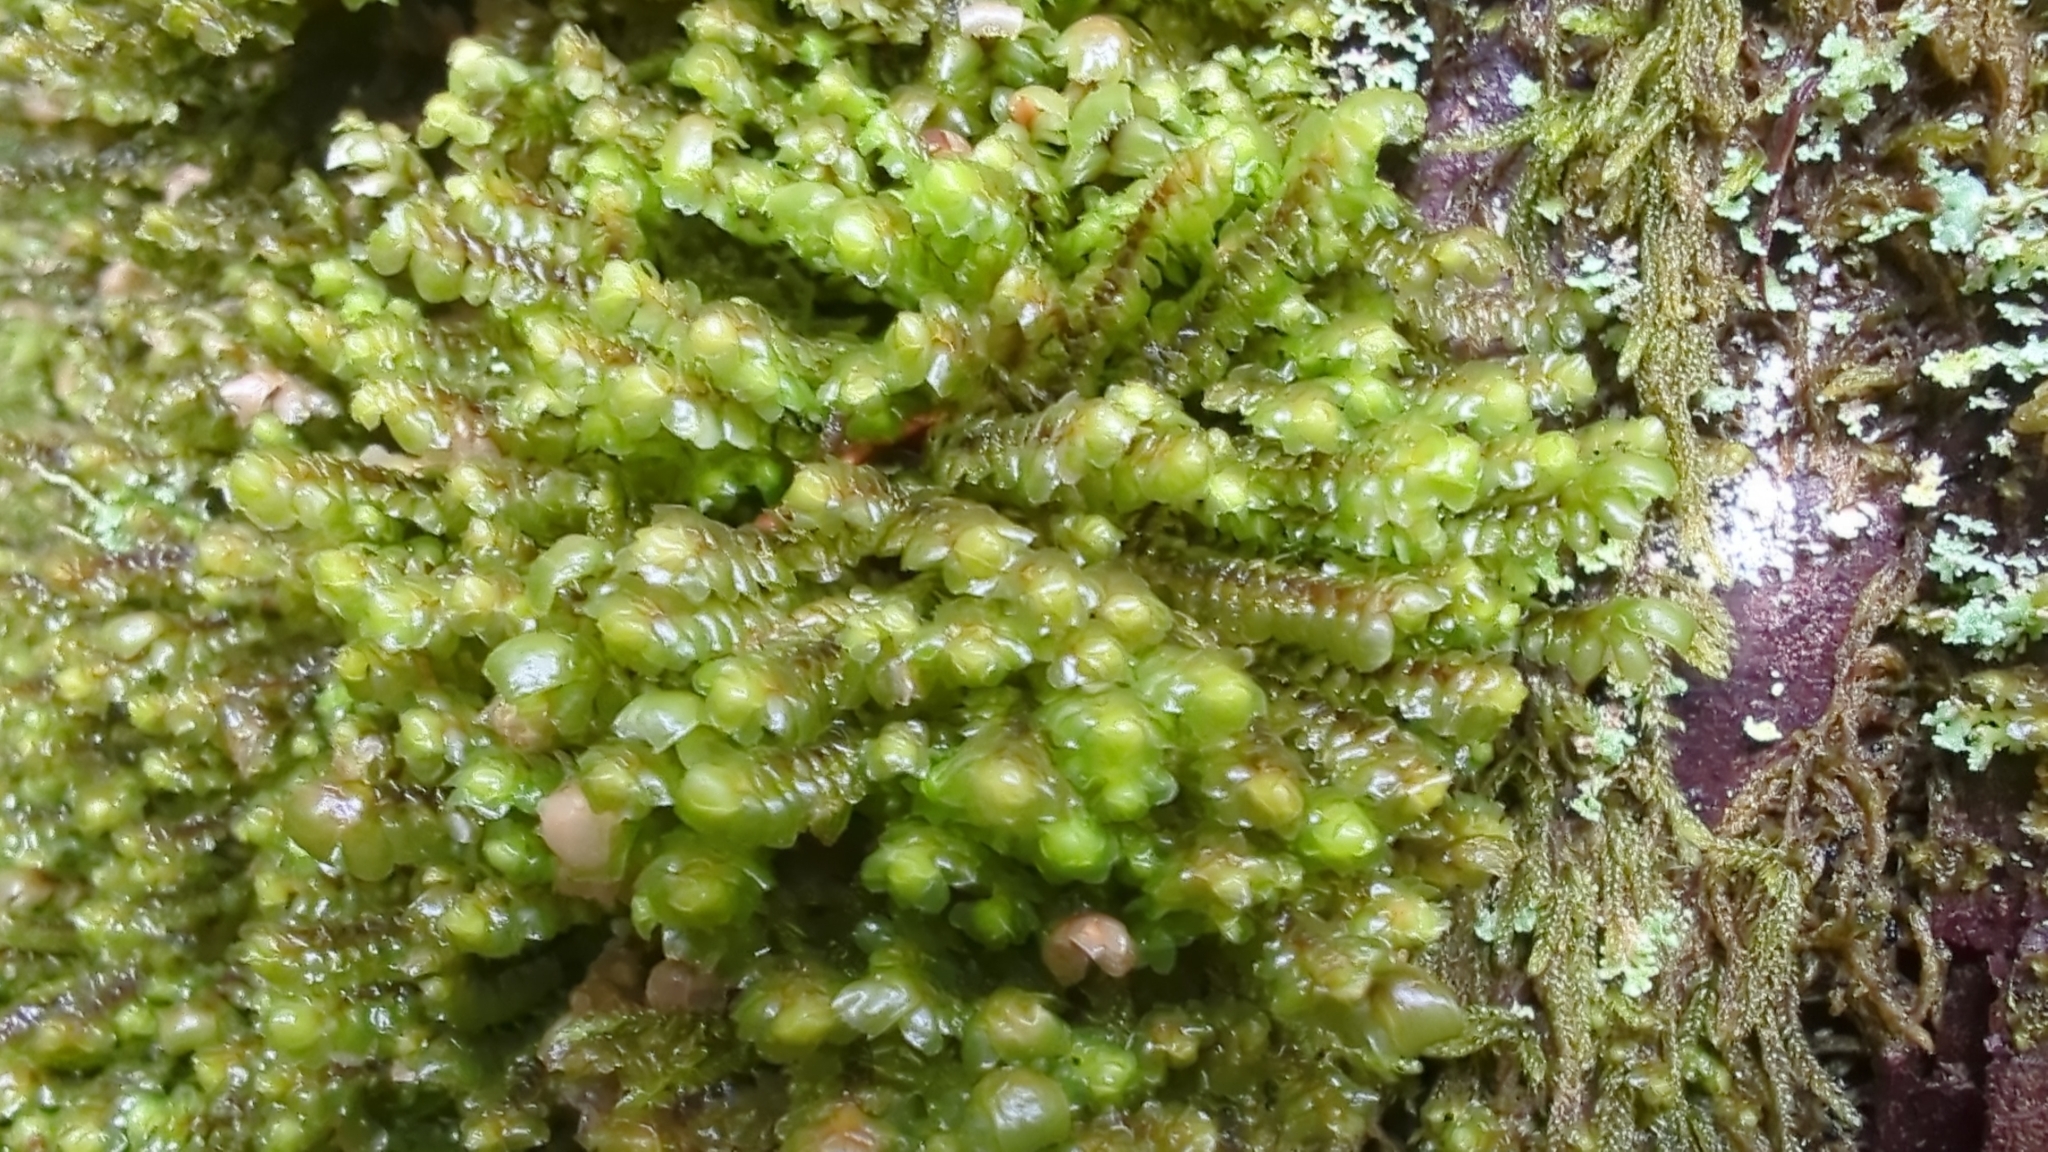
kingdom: Plantae
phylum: Marchantiophyta
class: Jungermanniopsida
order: Jungermanniales
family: Scapaniaceae
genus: Scapania
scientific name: Scapania bolanderi
